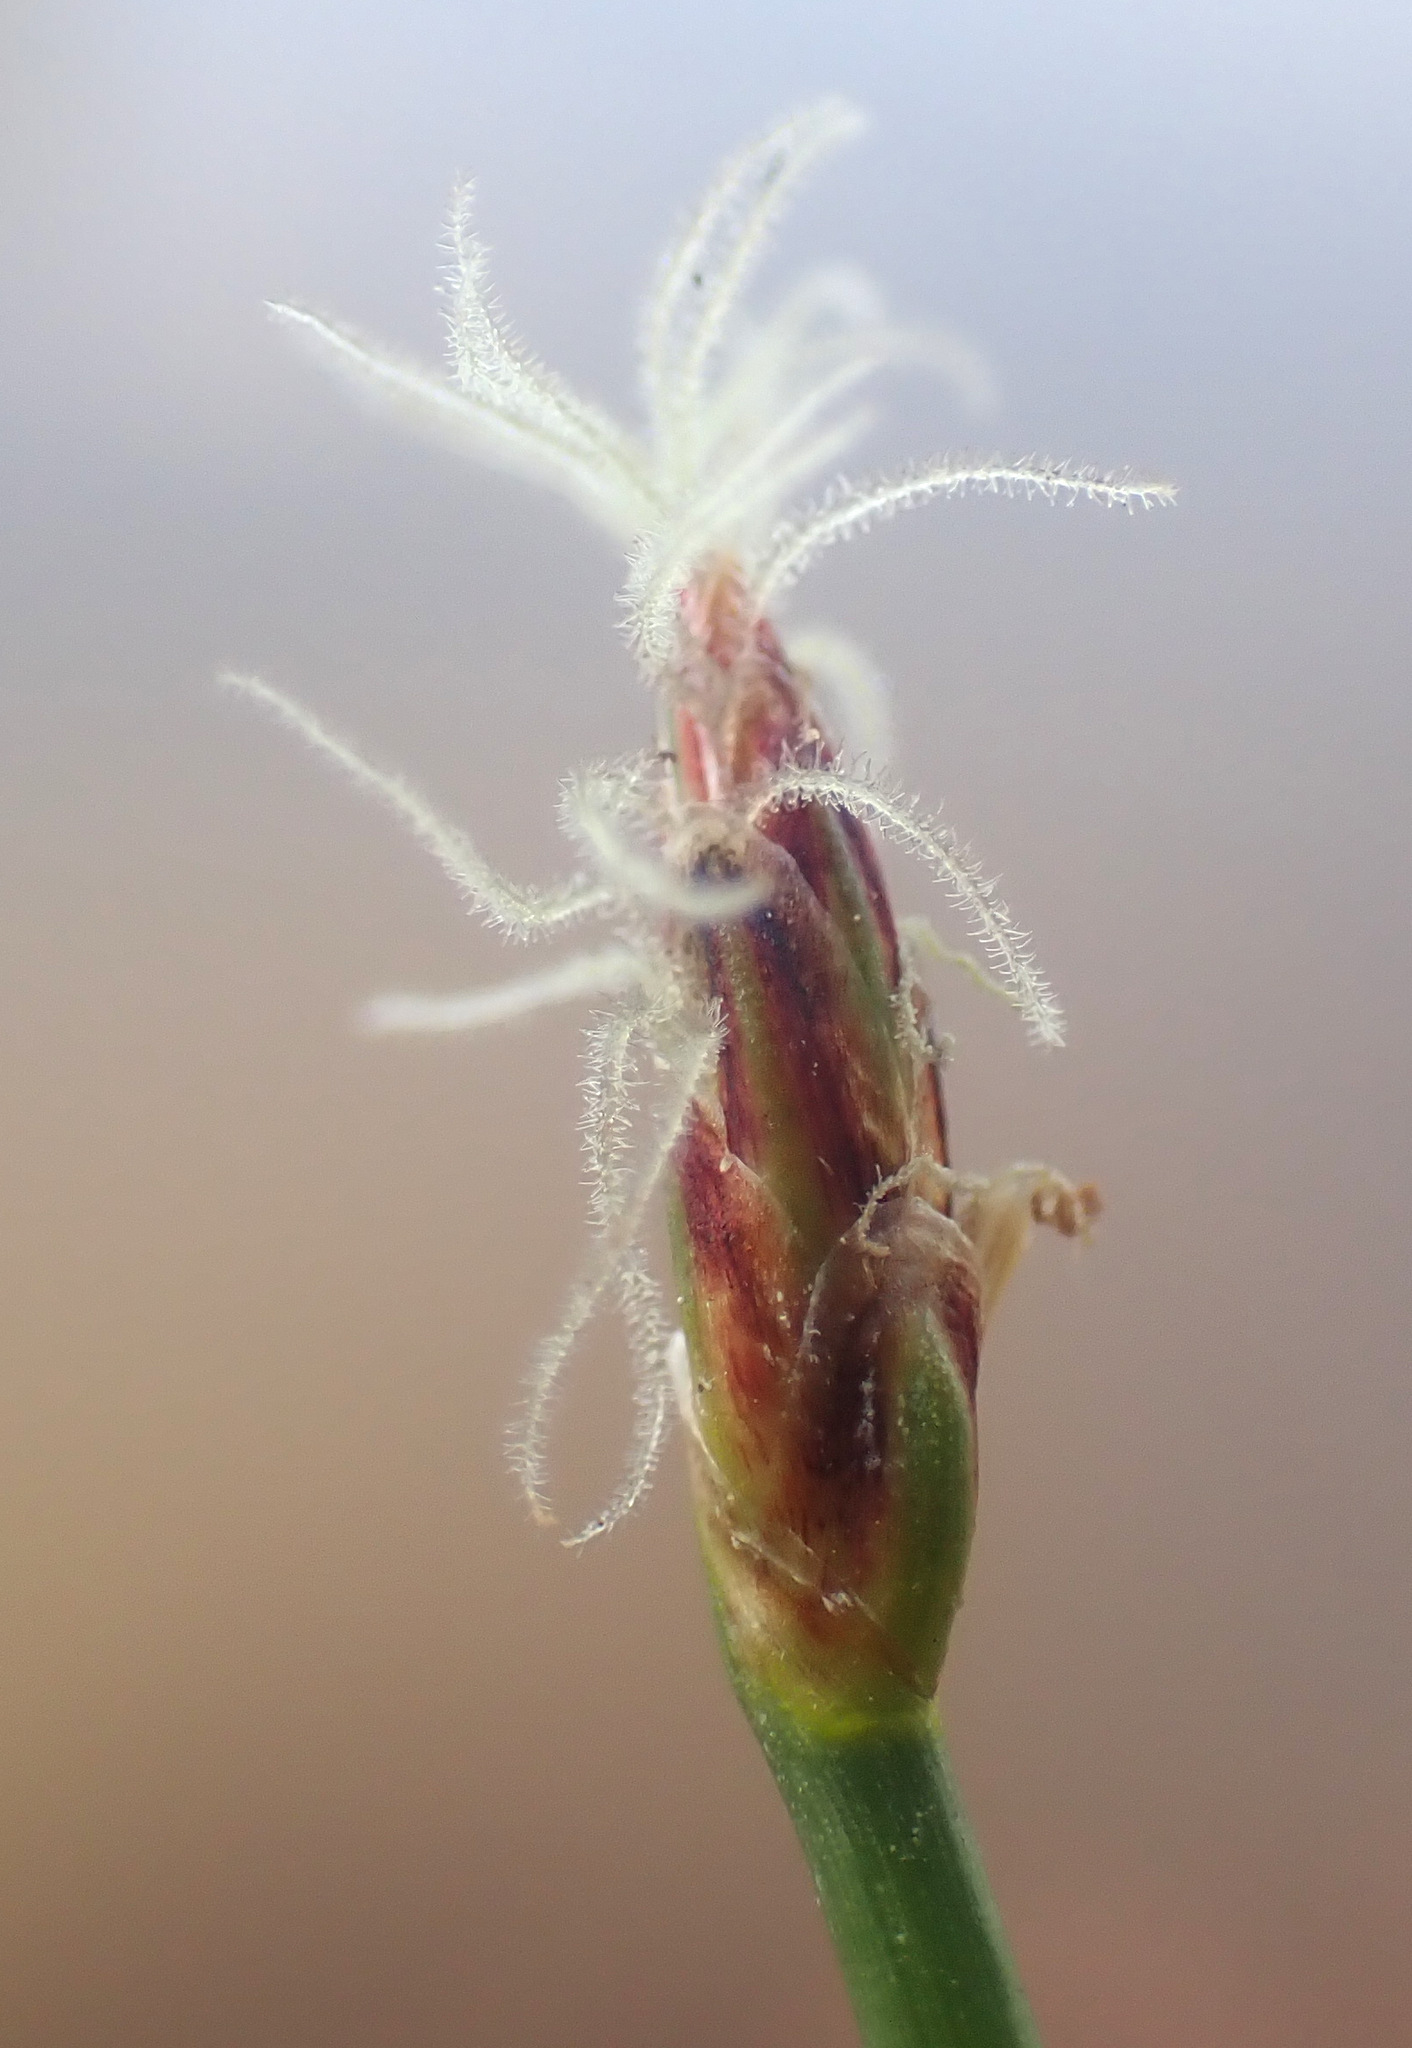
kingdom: Plantae
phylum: Tracheophyta
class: Liliopsida
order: Poales
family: Cyperaceae
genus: Eleocharis
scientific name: Eleocharis multicaulis
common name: Many-stalked spike-rush
